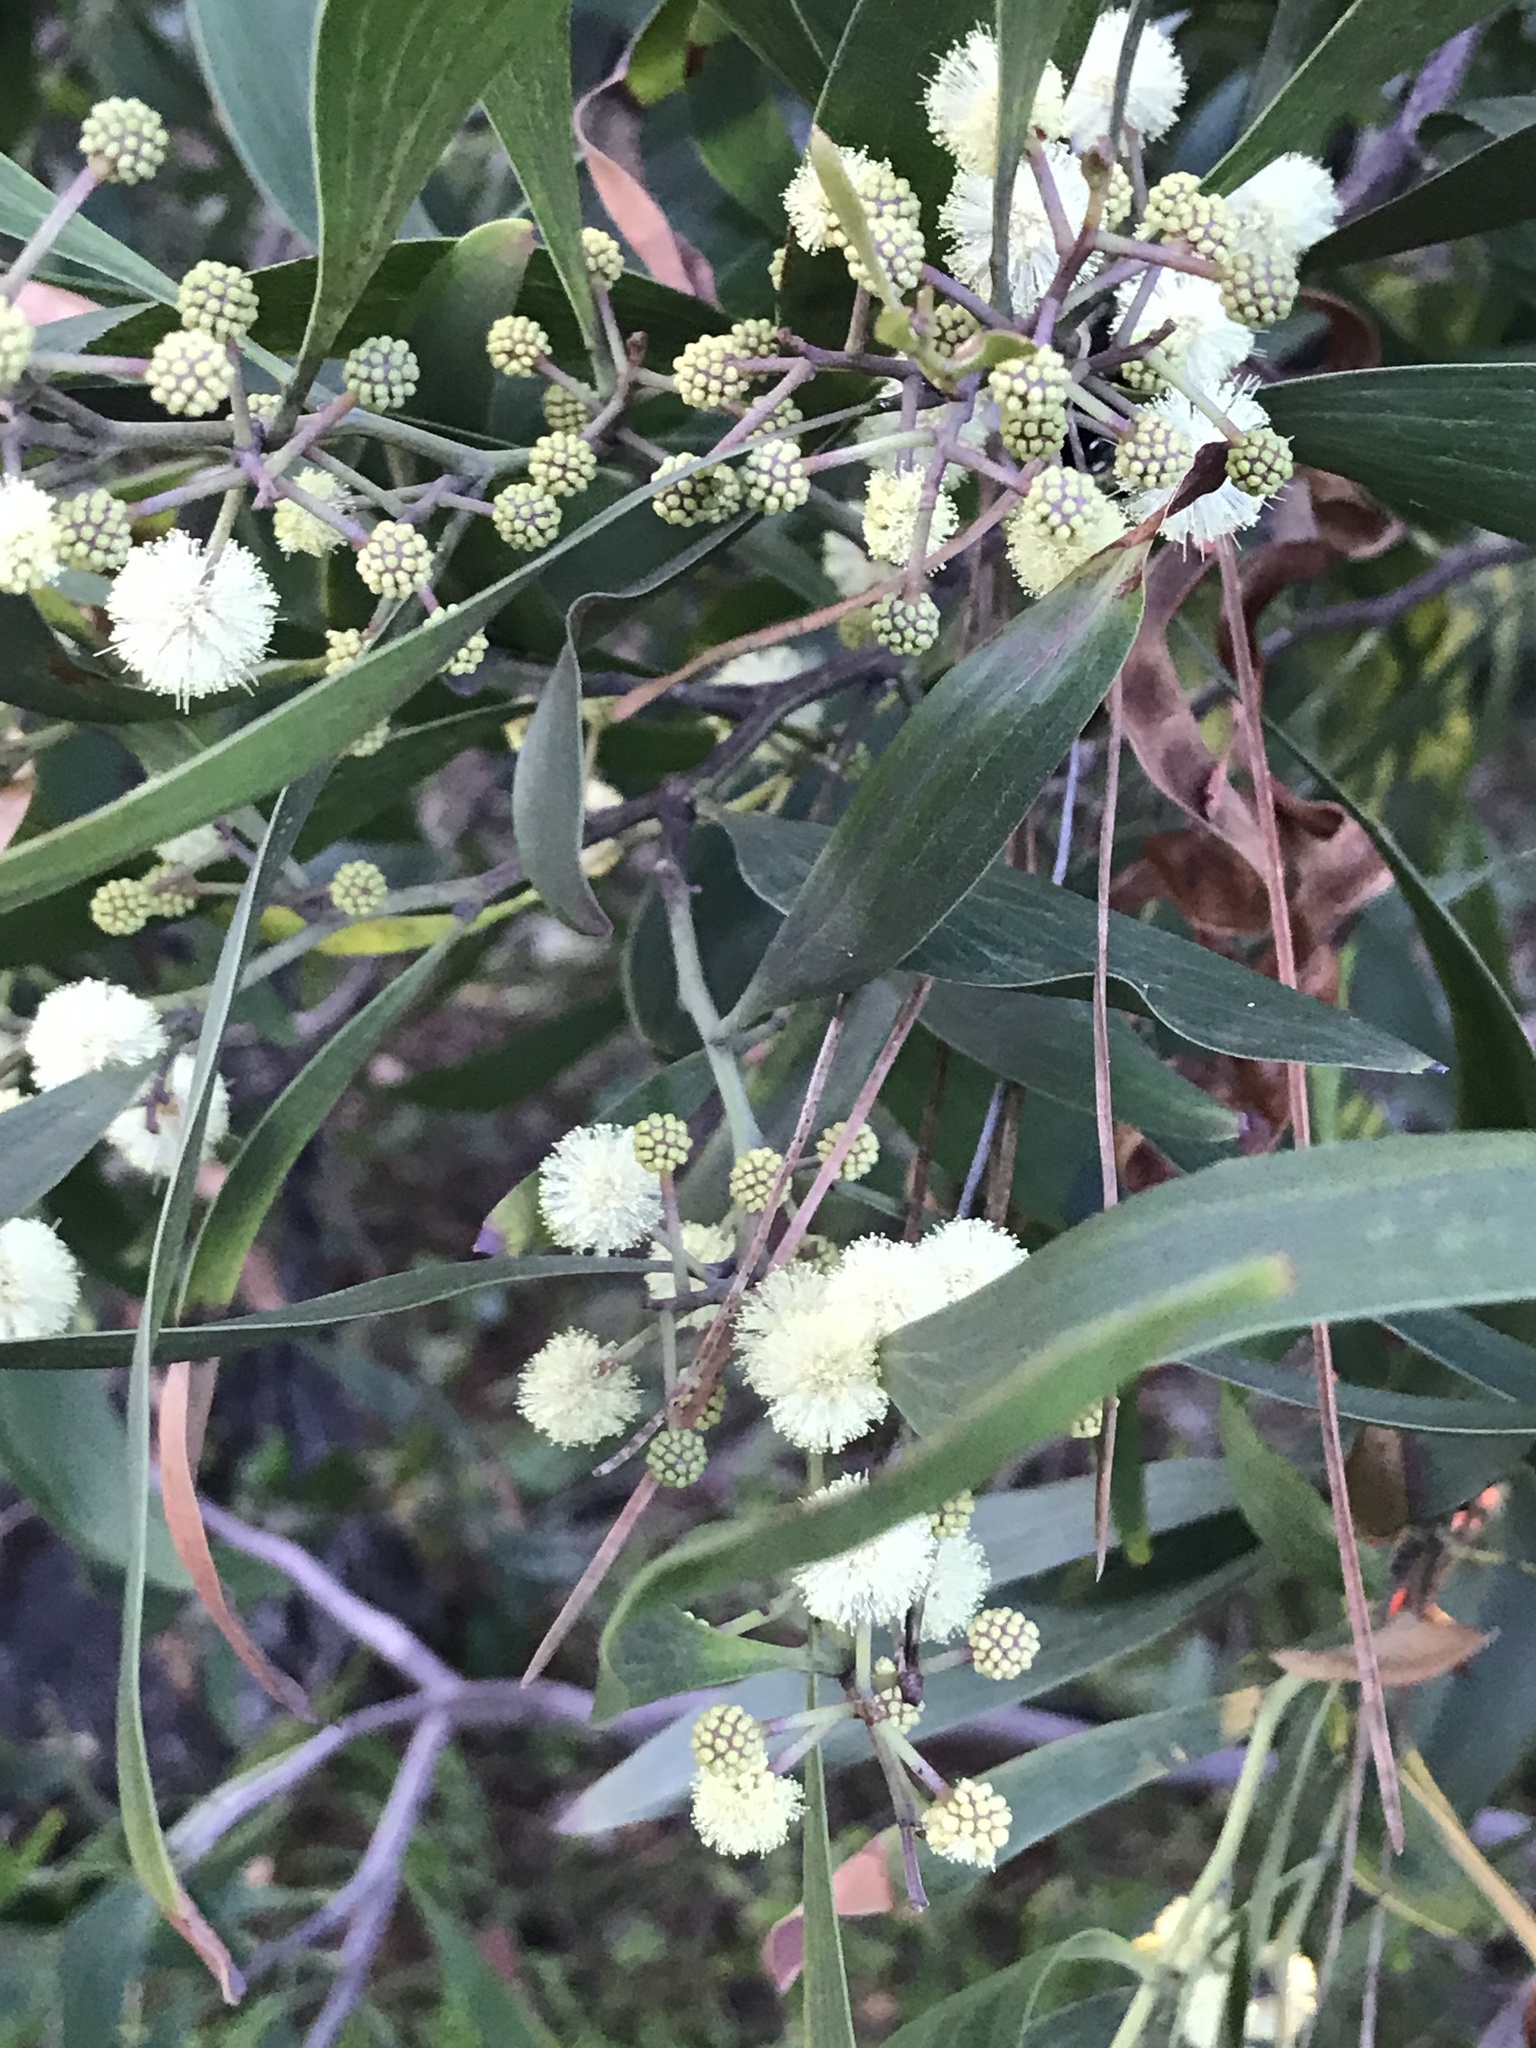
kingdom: Plantae
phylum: Tracheophyta
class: Magnoliopsida
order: Fabales
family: Fabaceae
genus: Acacia
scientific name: Acacia melanoxylon
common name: Blackwood
